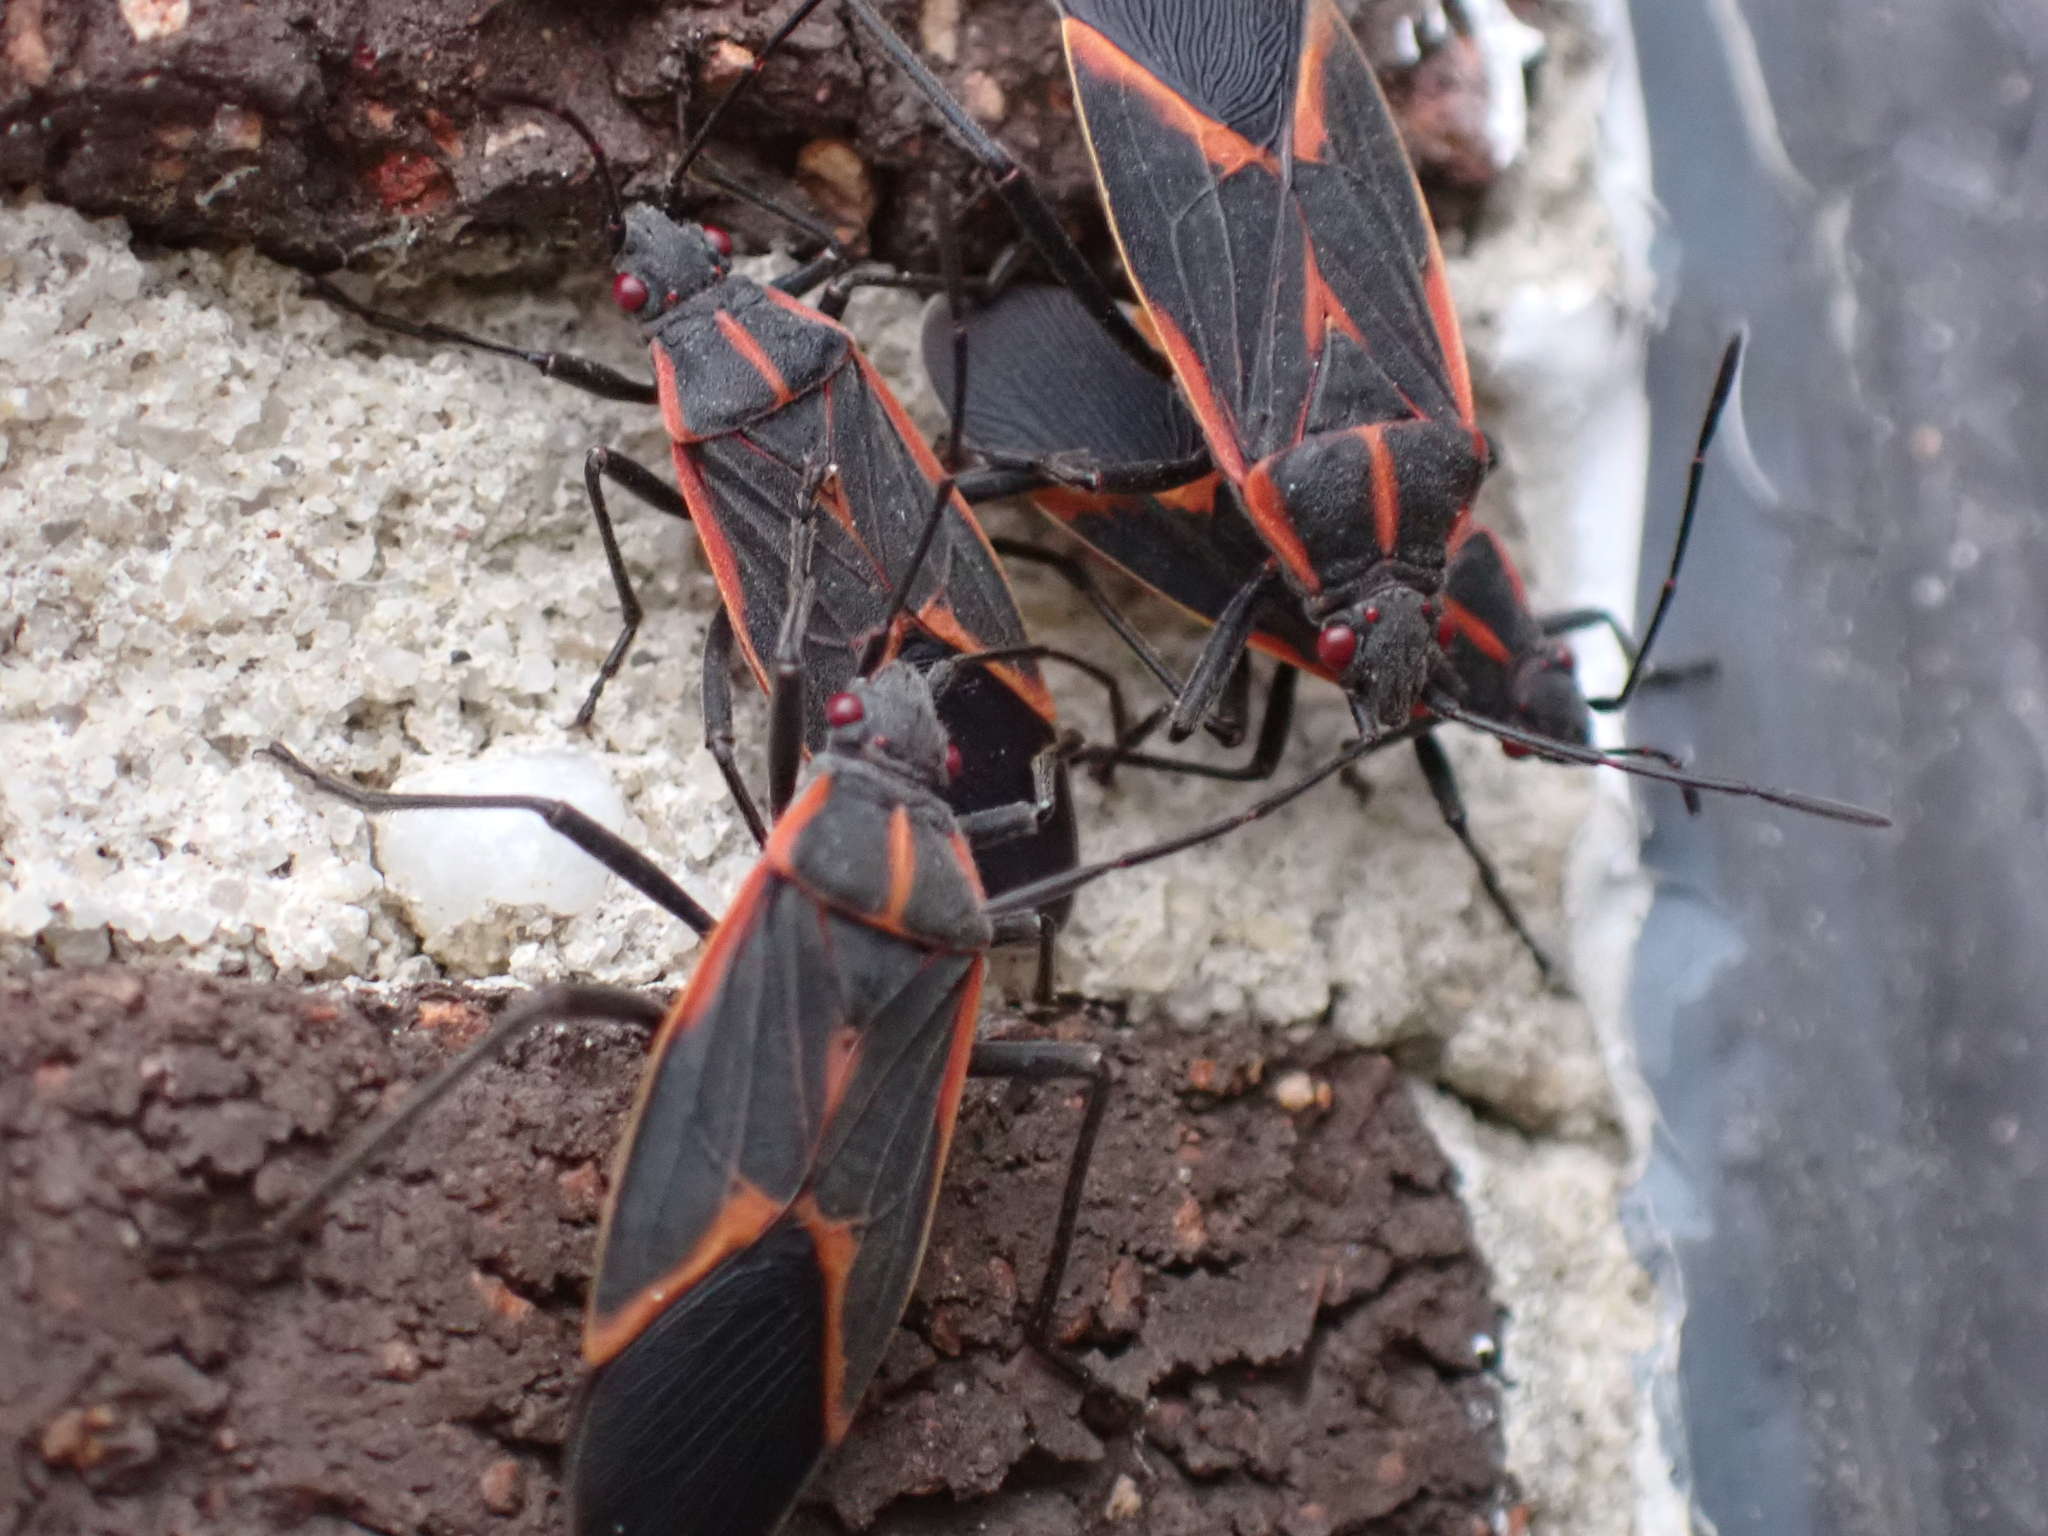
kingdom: Animalia
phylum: Arthropoda
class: Insecta
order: Hemiptera
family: Rhopalidae
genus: Boisea
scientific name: Boisea trivittata
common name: Boxelder bug
